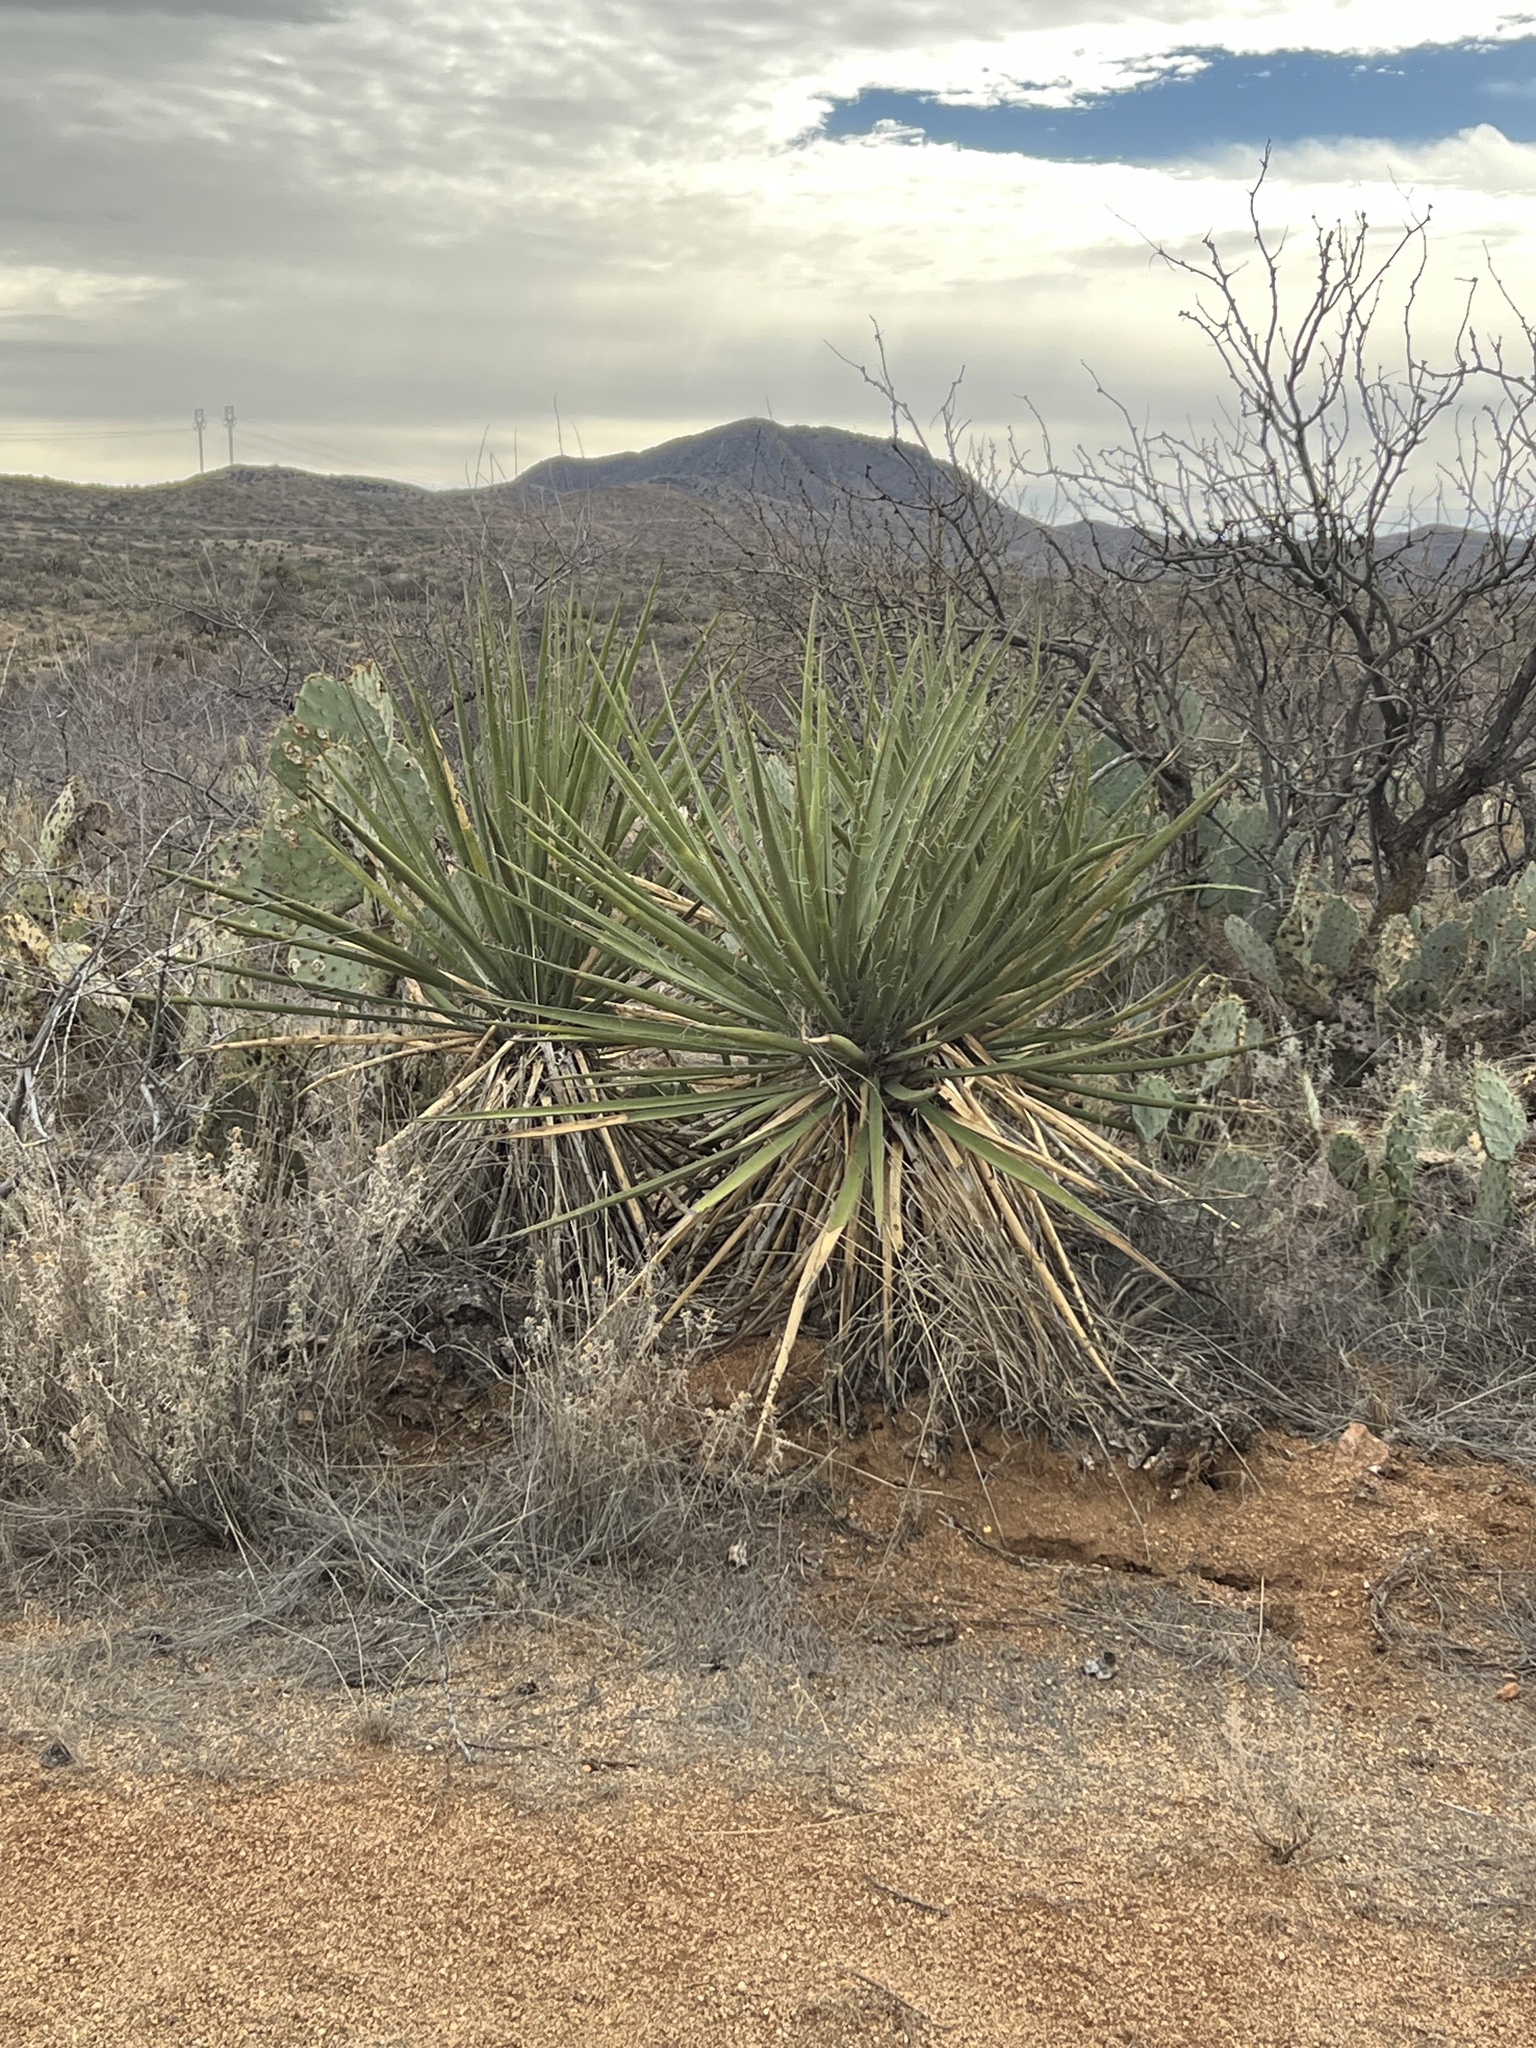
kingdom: Plantae
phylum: Tracheophyta
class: Liliopsida
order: Asparagales
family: Asparagaceae
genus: Yucca
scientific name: Yucca baccata
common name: Banana yucca
